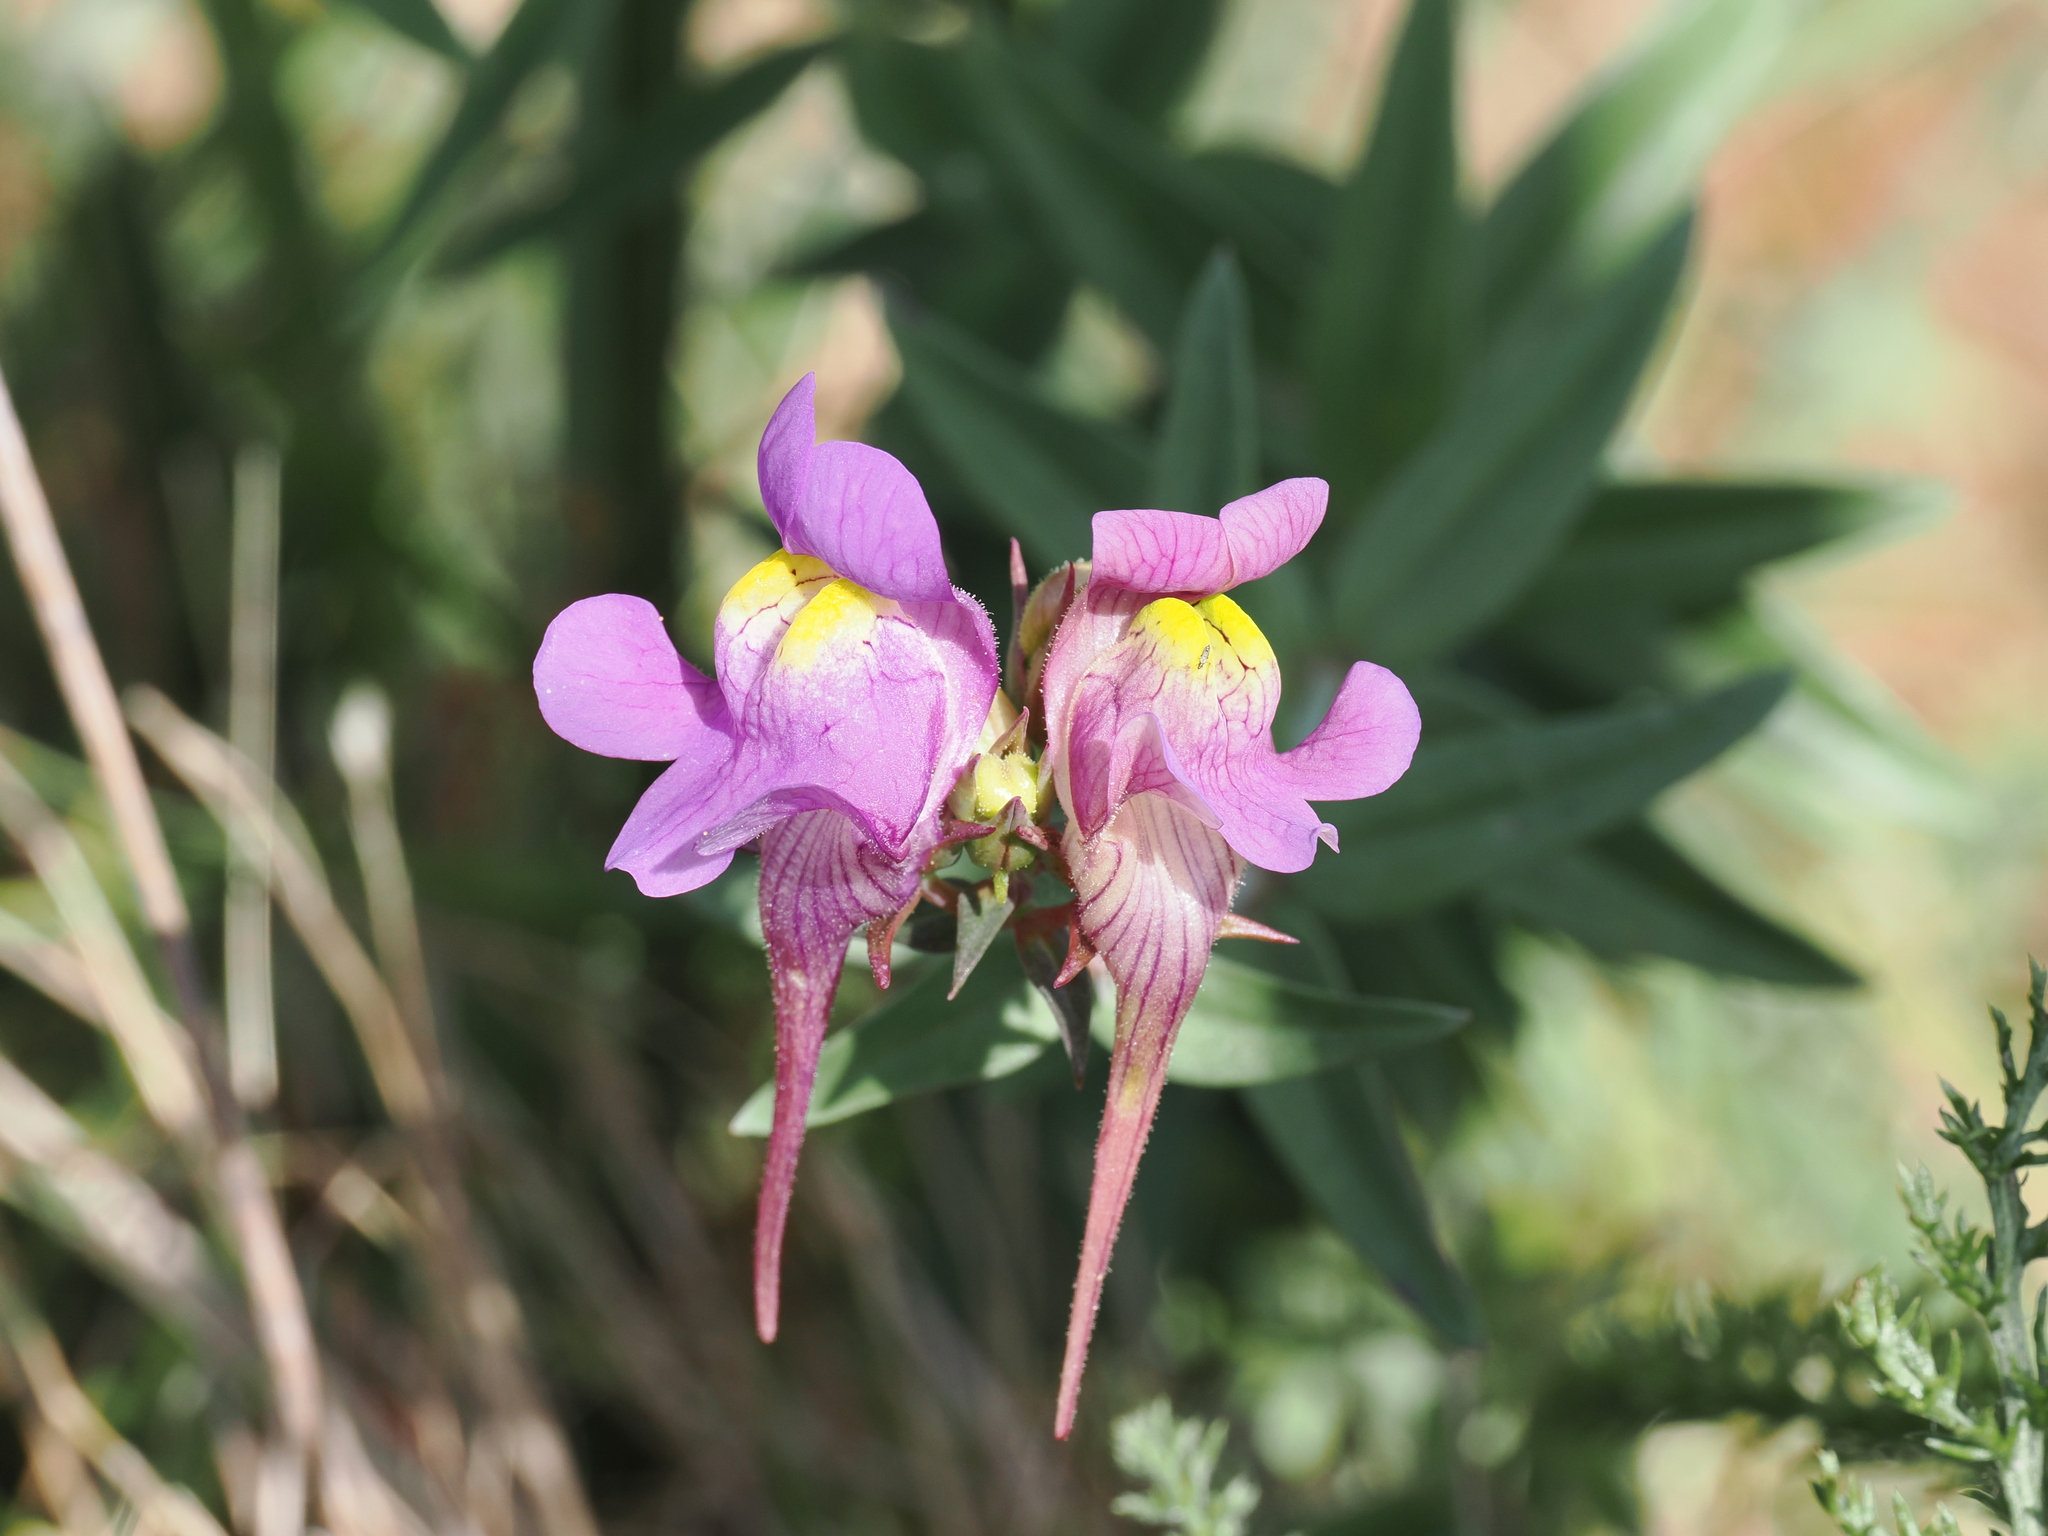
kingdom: Plantae
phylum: Tracheophyta
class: Magnoliopsida
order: Lamiales
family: Plantaginaceae
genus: Linaria
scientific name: Linaria triornithophora
